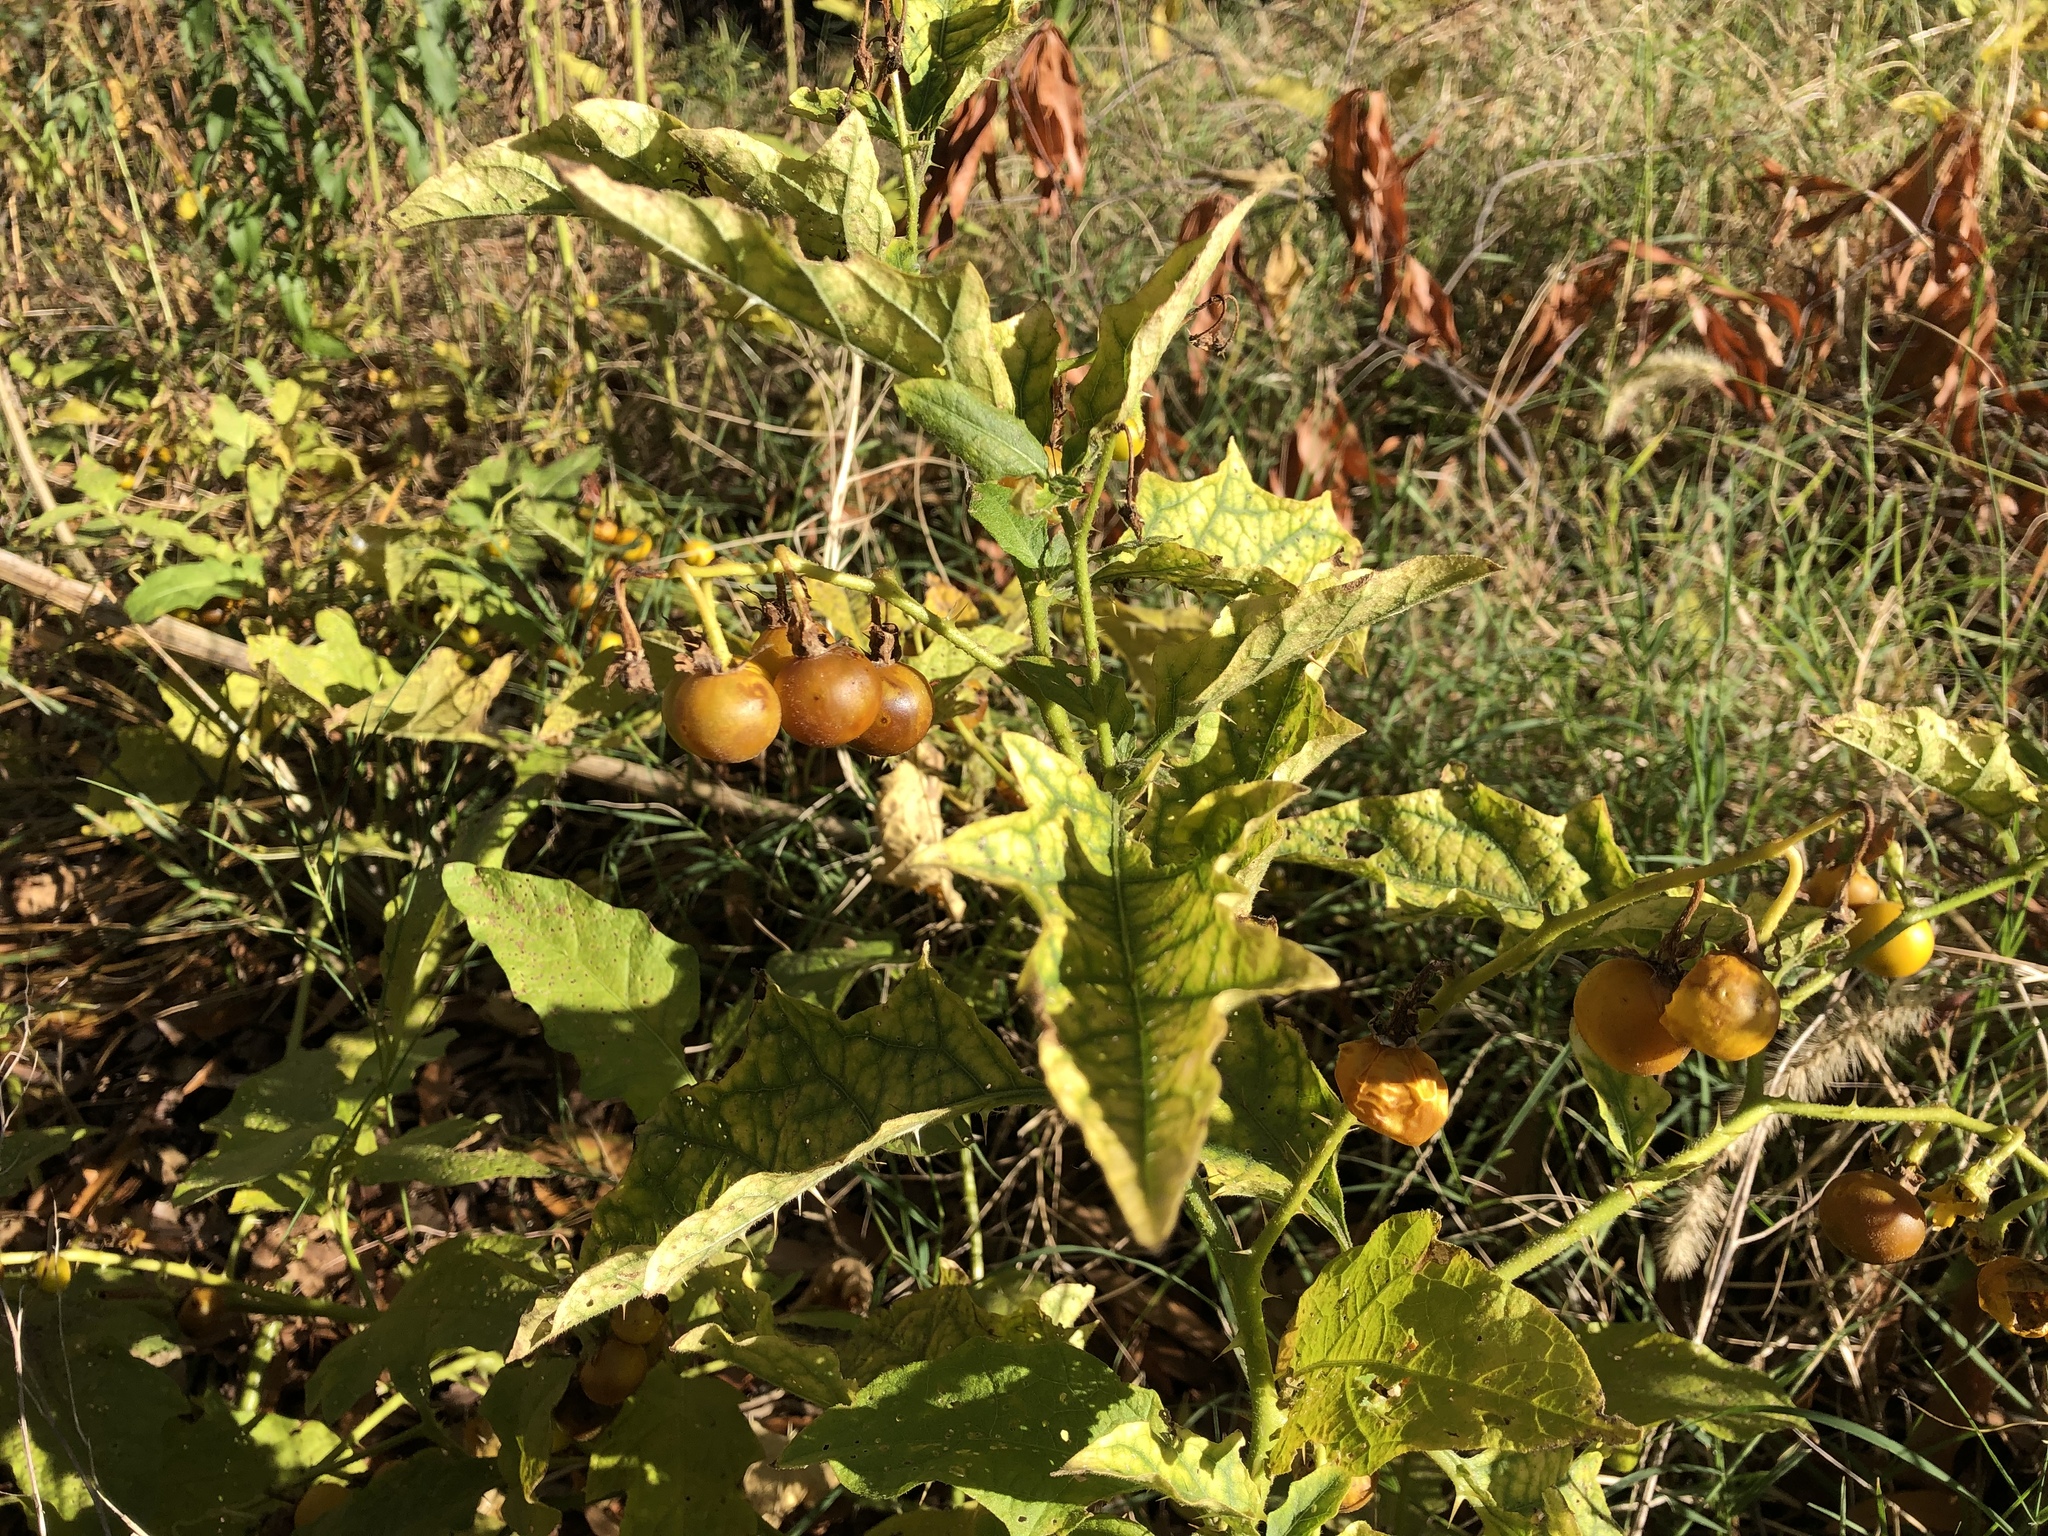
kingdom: Plantae
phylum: Tracheophyta
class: Magnoliopsida
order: Solanales
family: Solanaceae
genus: Solanum
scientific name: Solanum carolinense
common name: Horse-nettle
